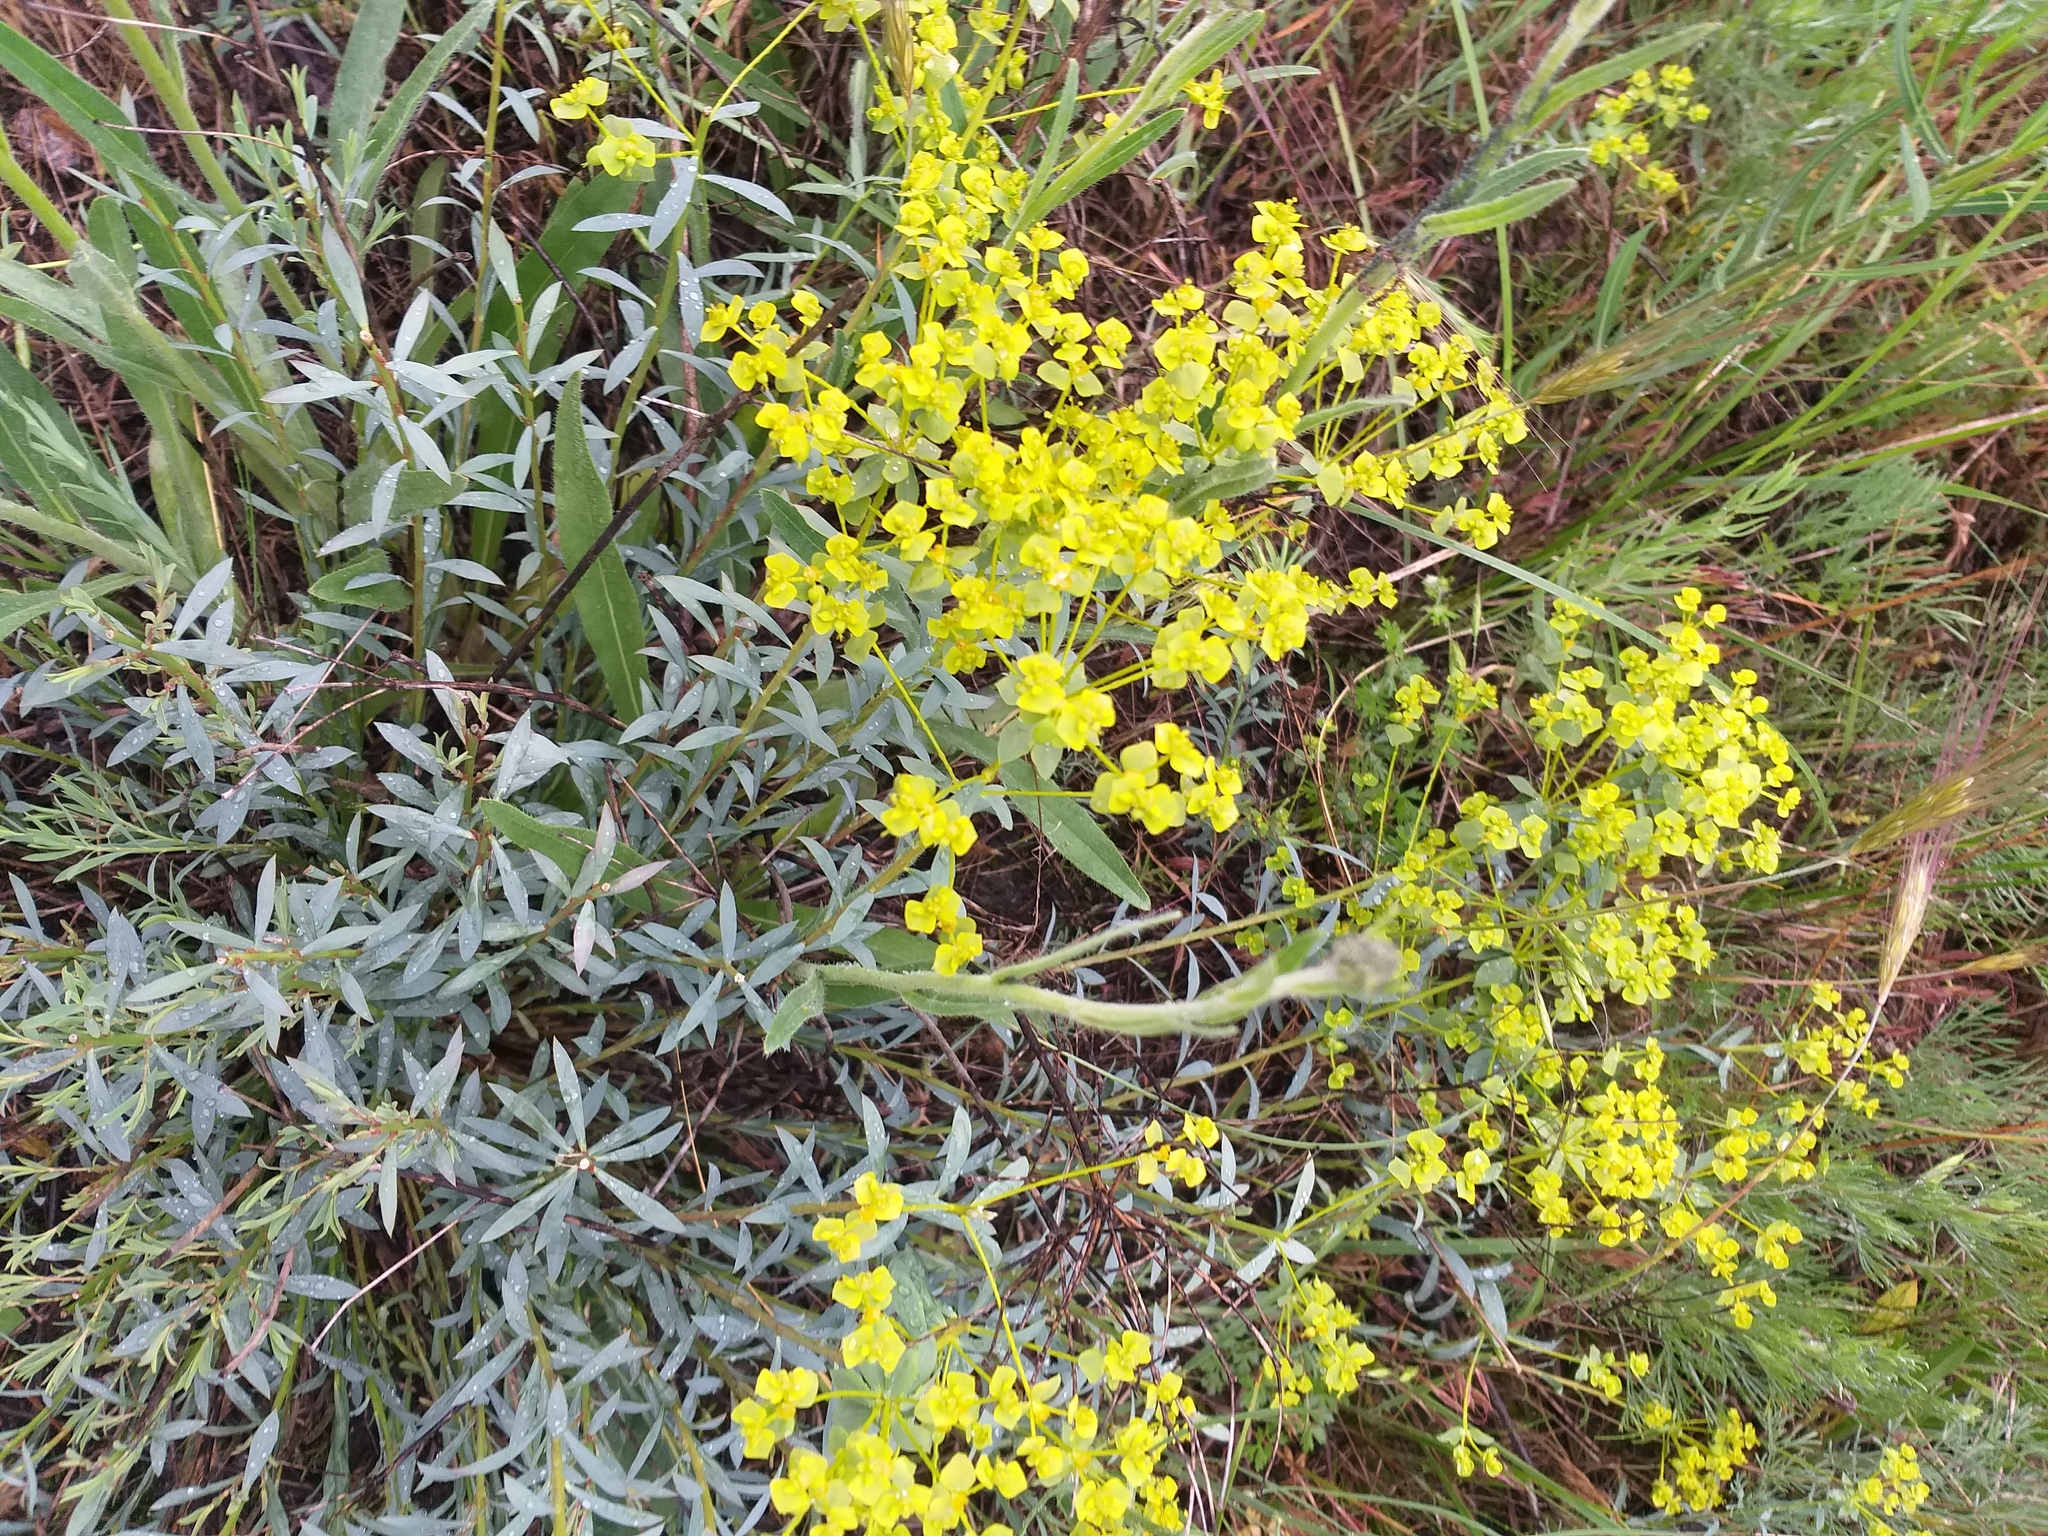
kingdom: Plantae
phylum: Tracheophyta
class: Magnoliopsida
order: Malpighiales
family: Euphorbiaceae
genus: Euphorbia
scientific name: Euphorbia seguieriana
